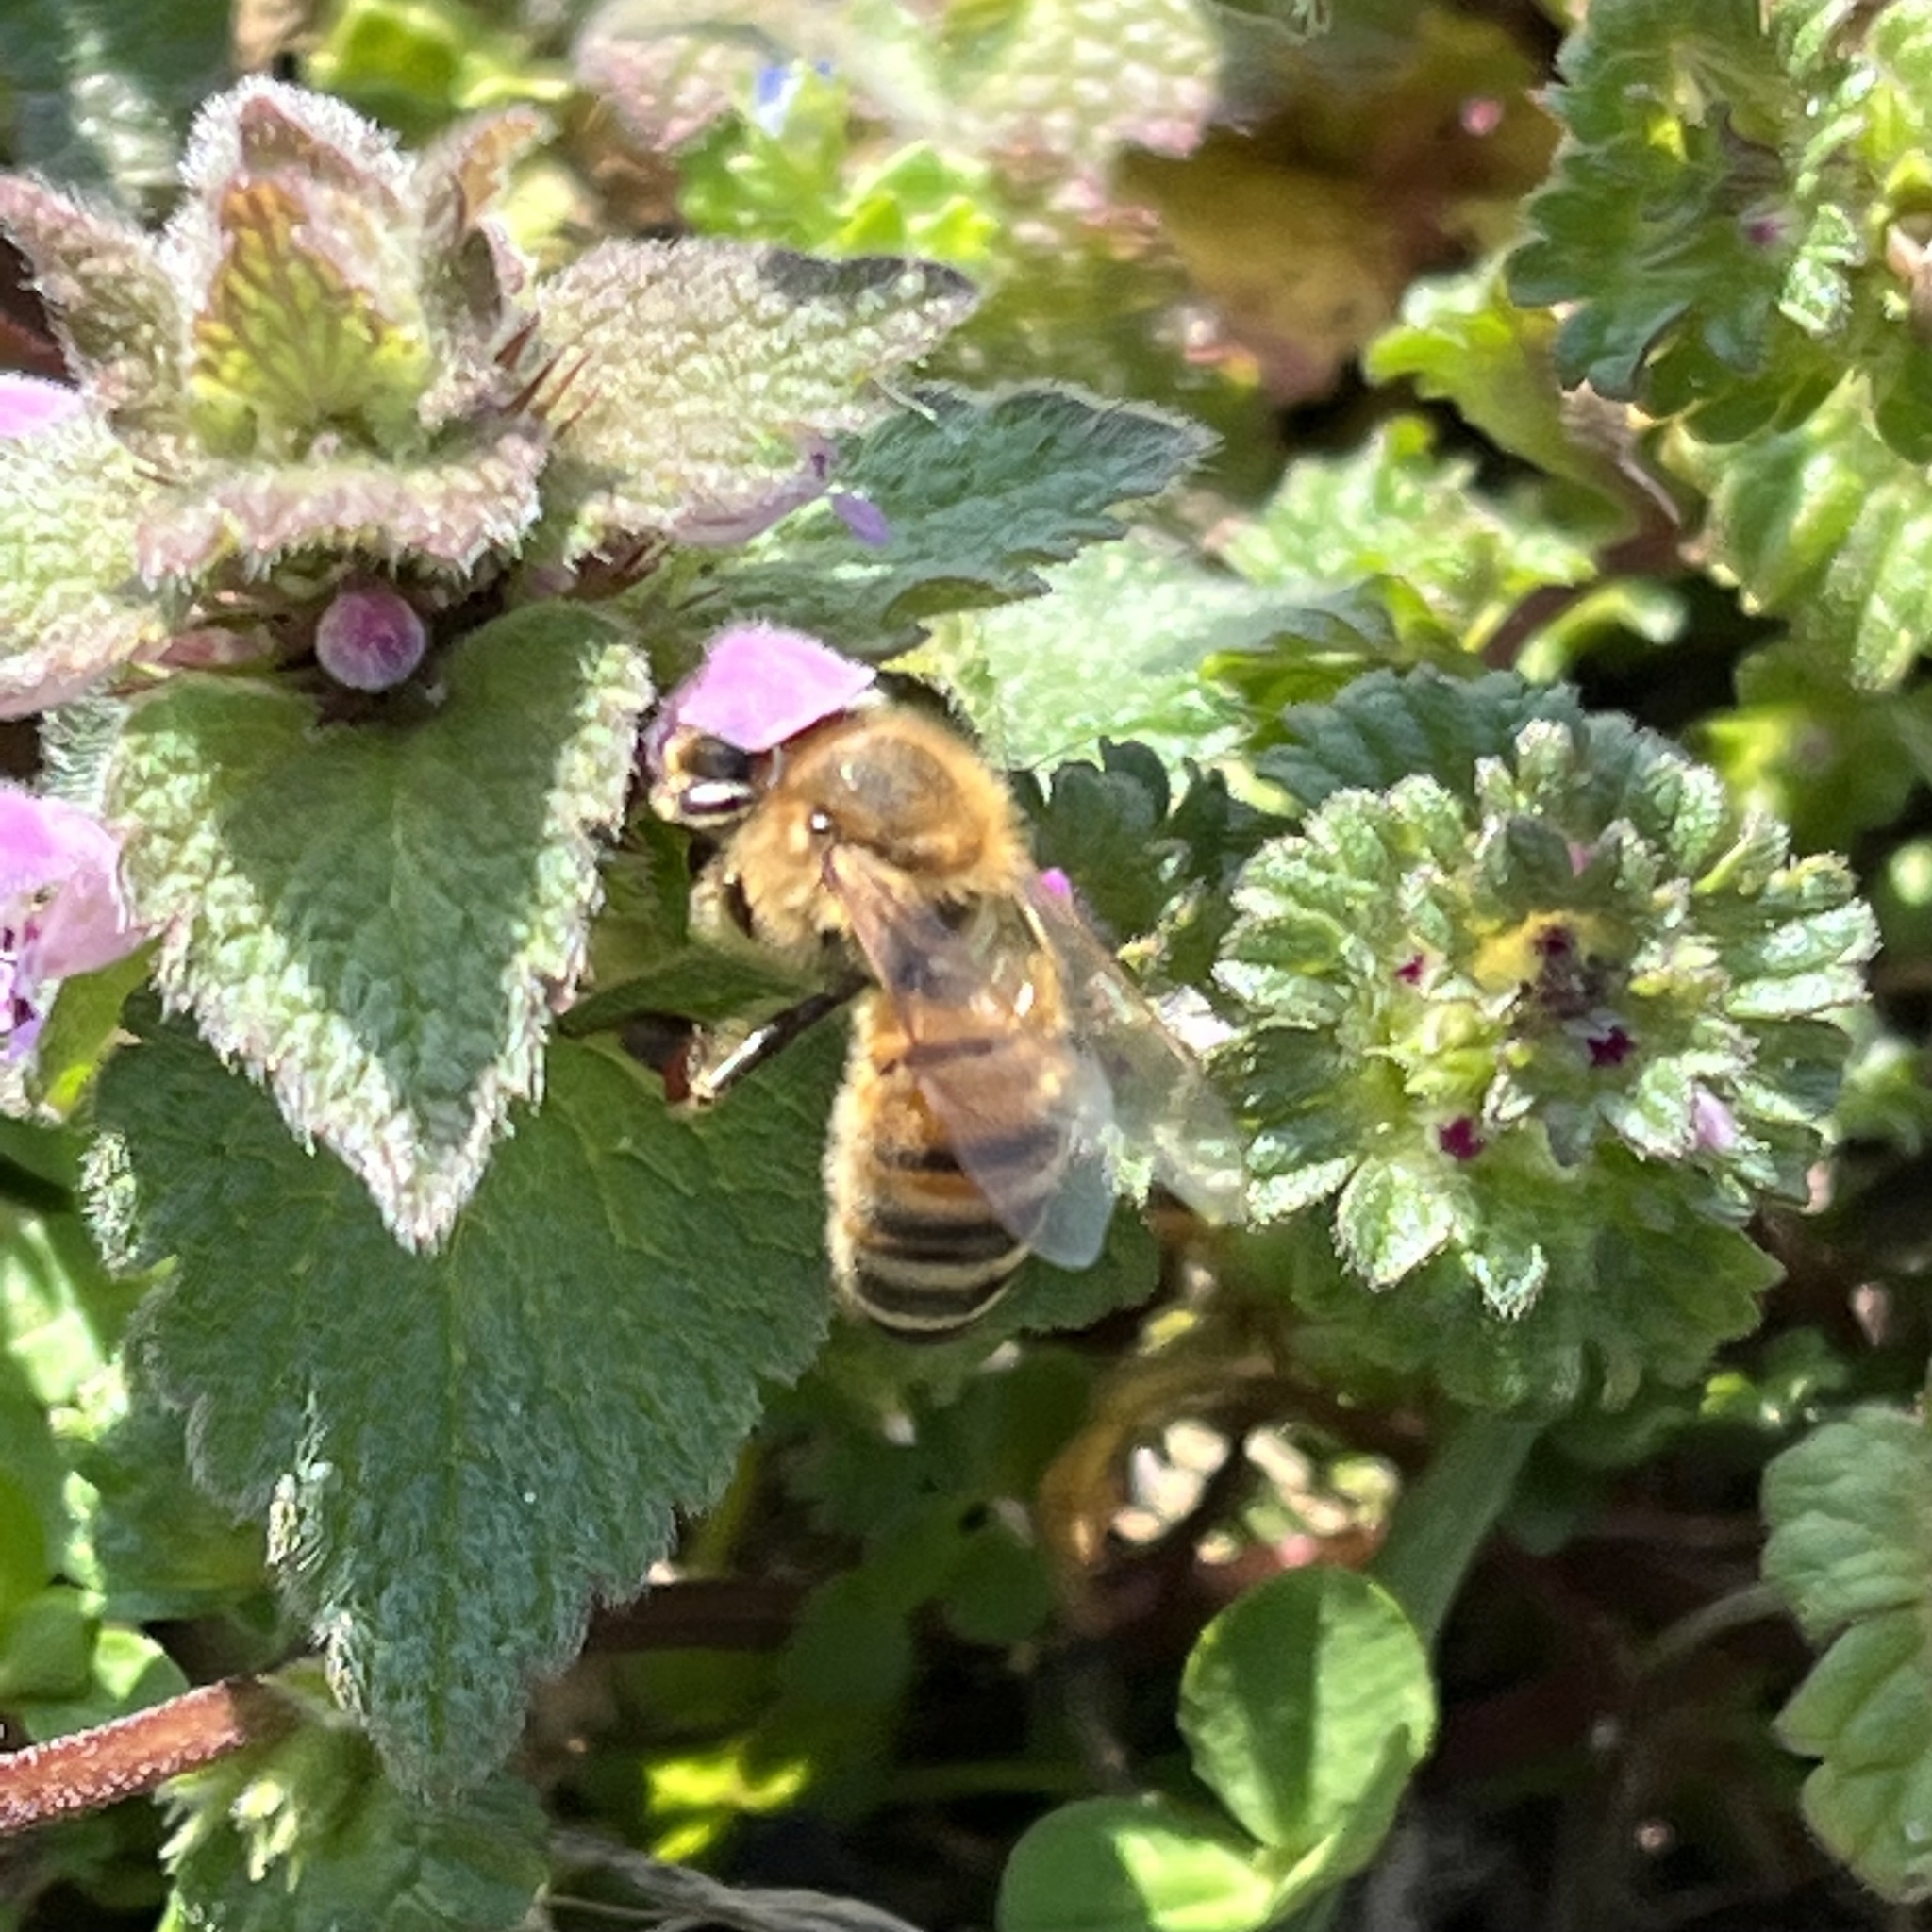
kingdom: Animalia
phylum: Arthropoda
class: Insecta
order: Hymenoptera
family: Apidae
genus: Apis
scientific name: Apis mellifera
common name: Honey bee
